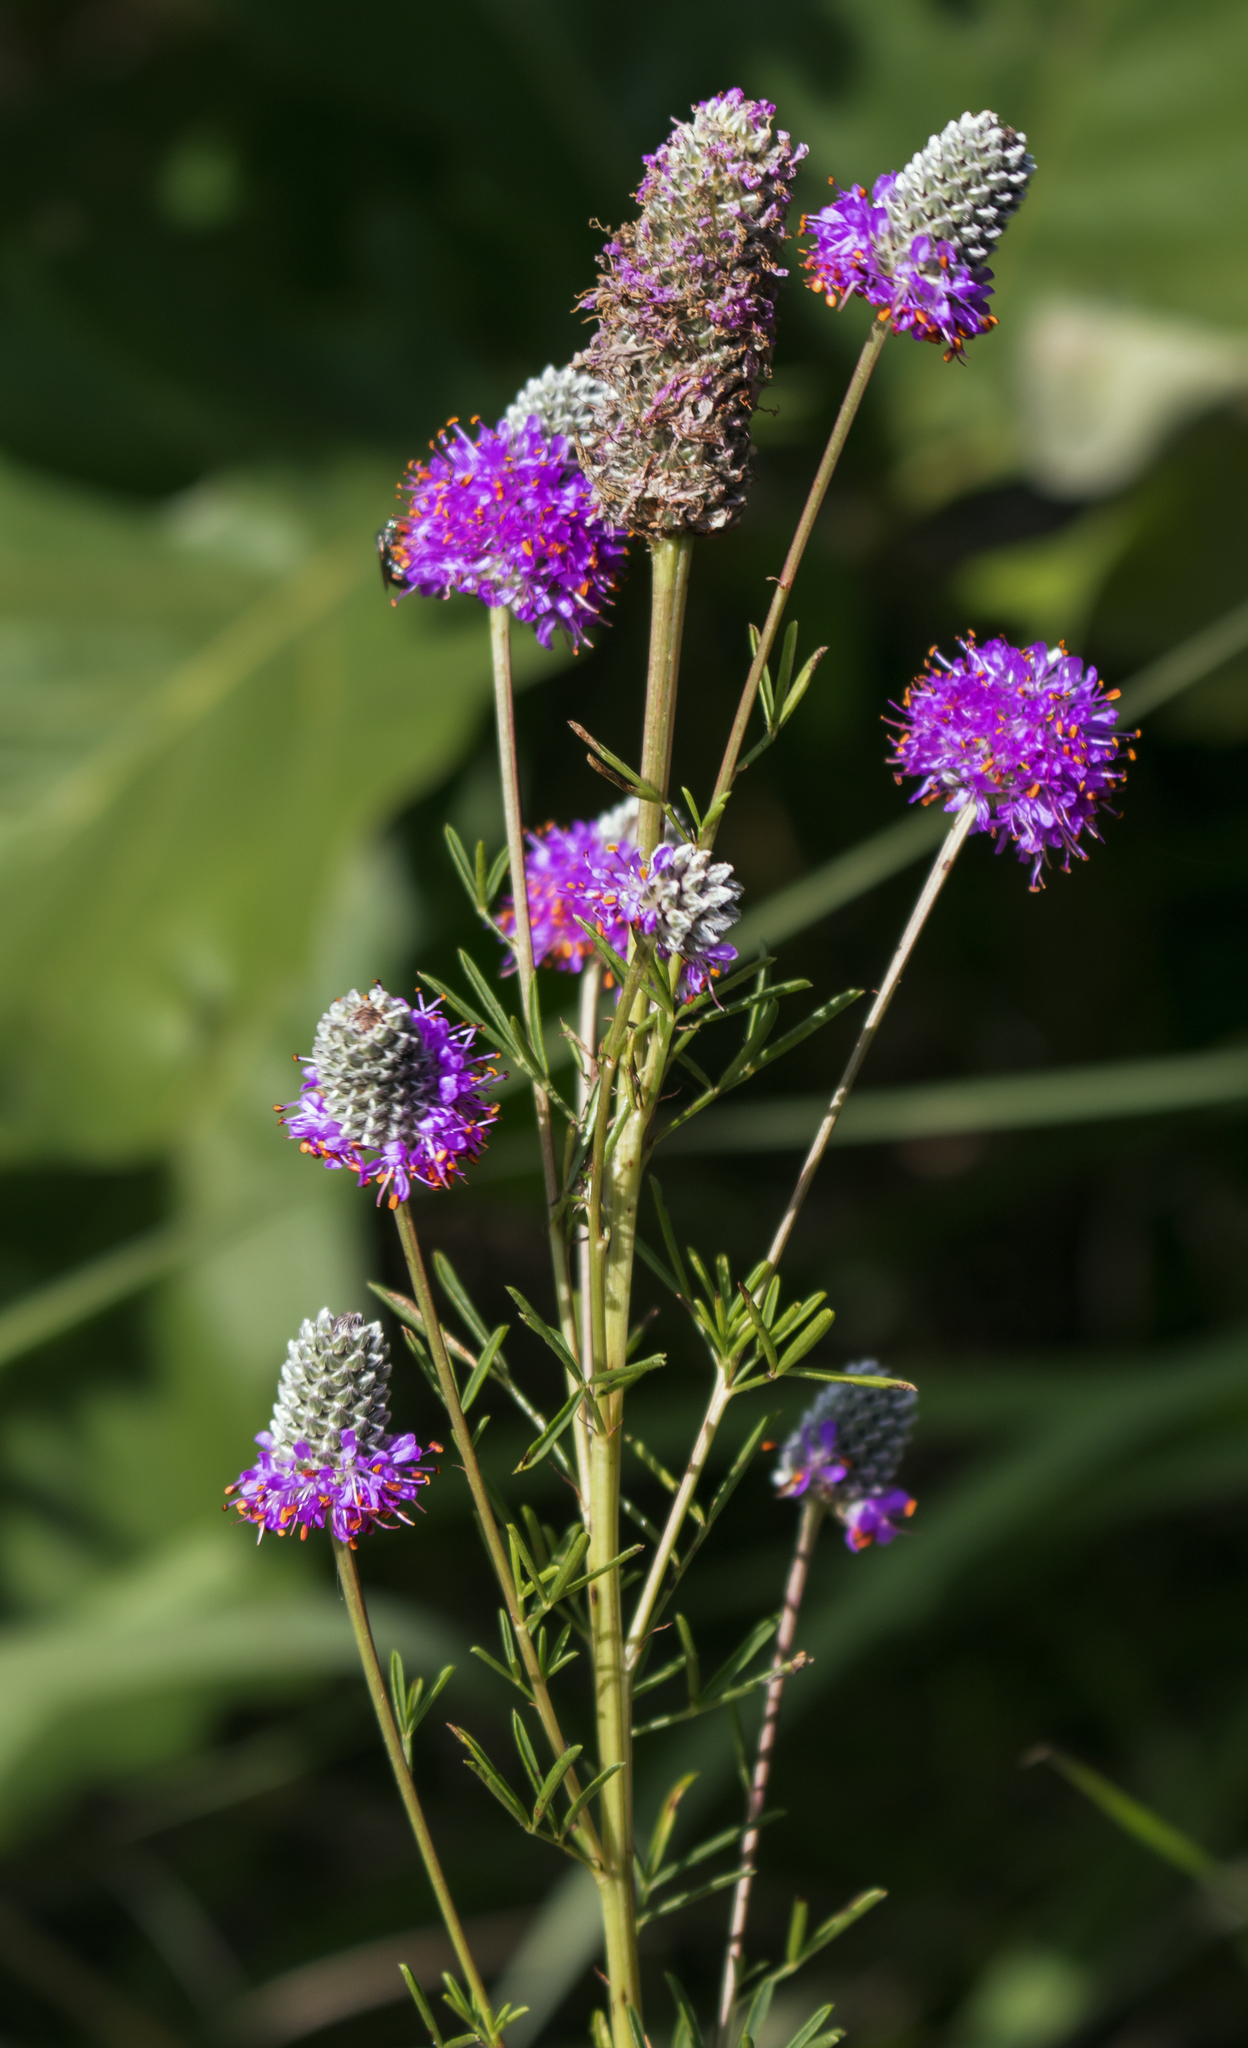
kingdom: Plantae
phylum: Tracheophyta
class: Magnoliopsida
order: Fabales
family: Fabaceae
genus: Dalea
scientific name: Dalea purpurea
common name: Purple prairie-clover
